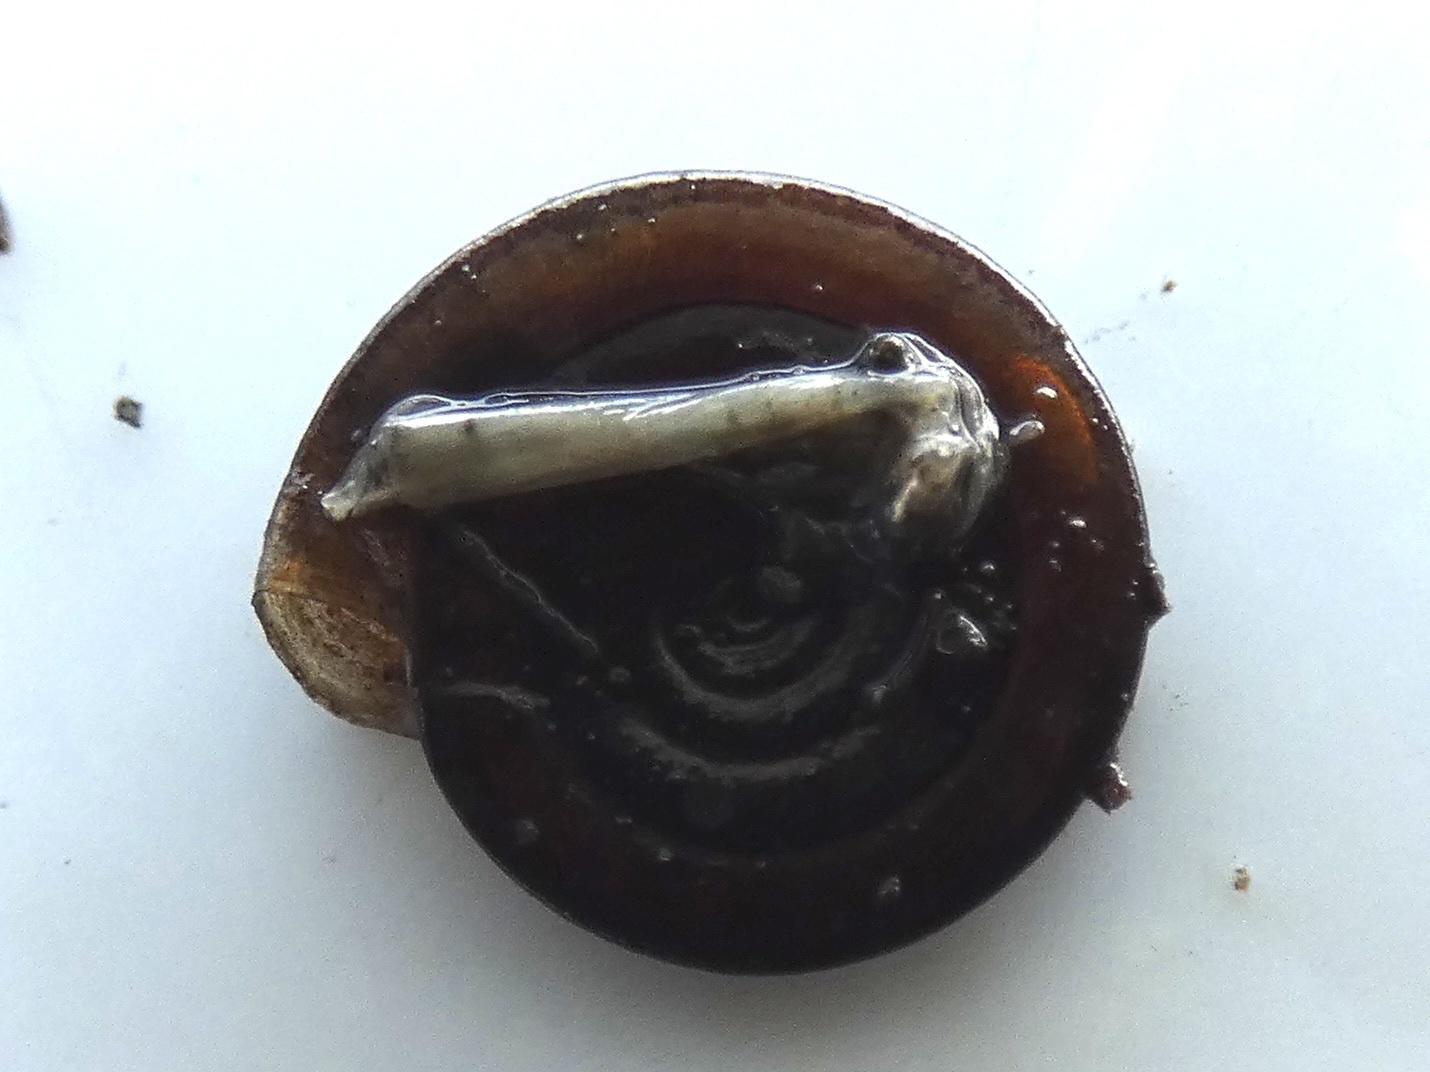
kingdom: Animalia
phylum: Mollusca
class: Gastropoda
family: Planorbidae
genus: Anisus
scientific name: Anisus vortex
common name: Whirlpool ram's horn snail
